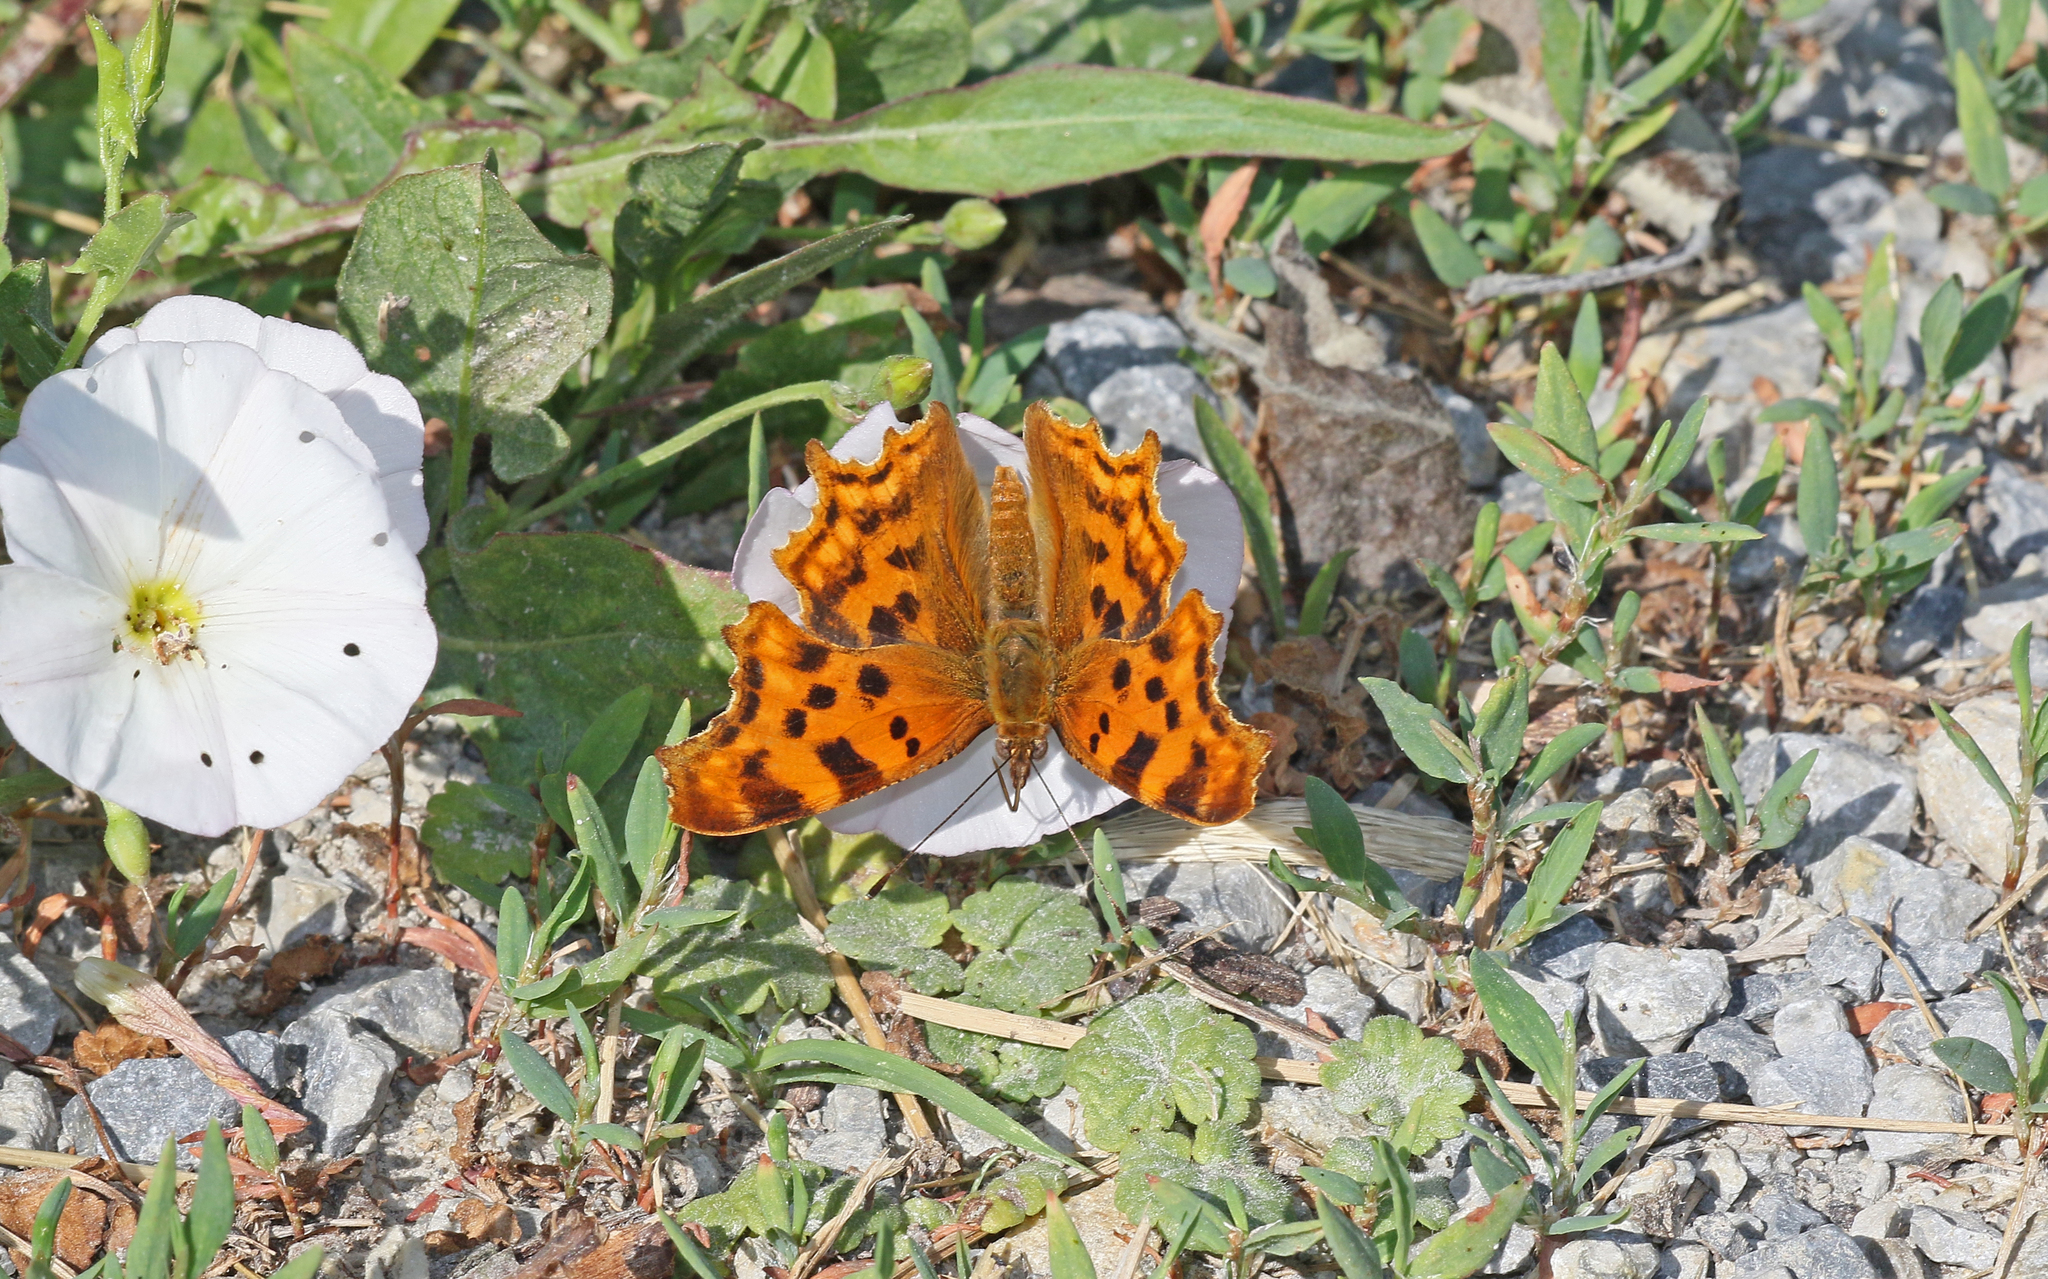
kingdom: Animalia
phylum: Arthropoda
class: Insecta
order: Lepidoptera
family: Nymphalidae
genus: Polygonia
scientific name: Polygonia c-album
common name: Comma
